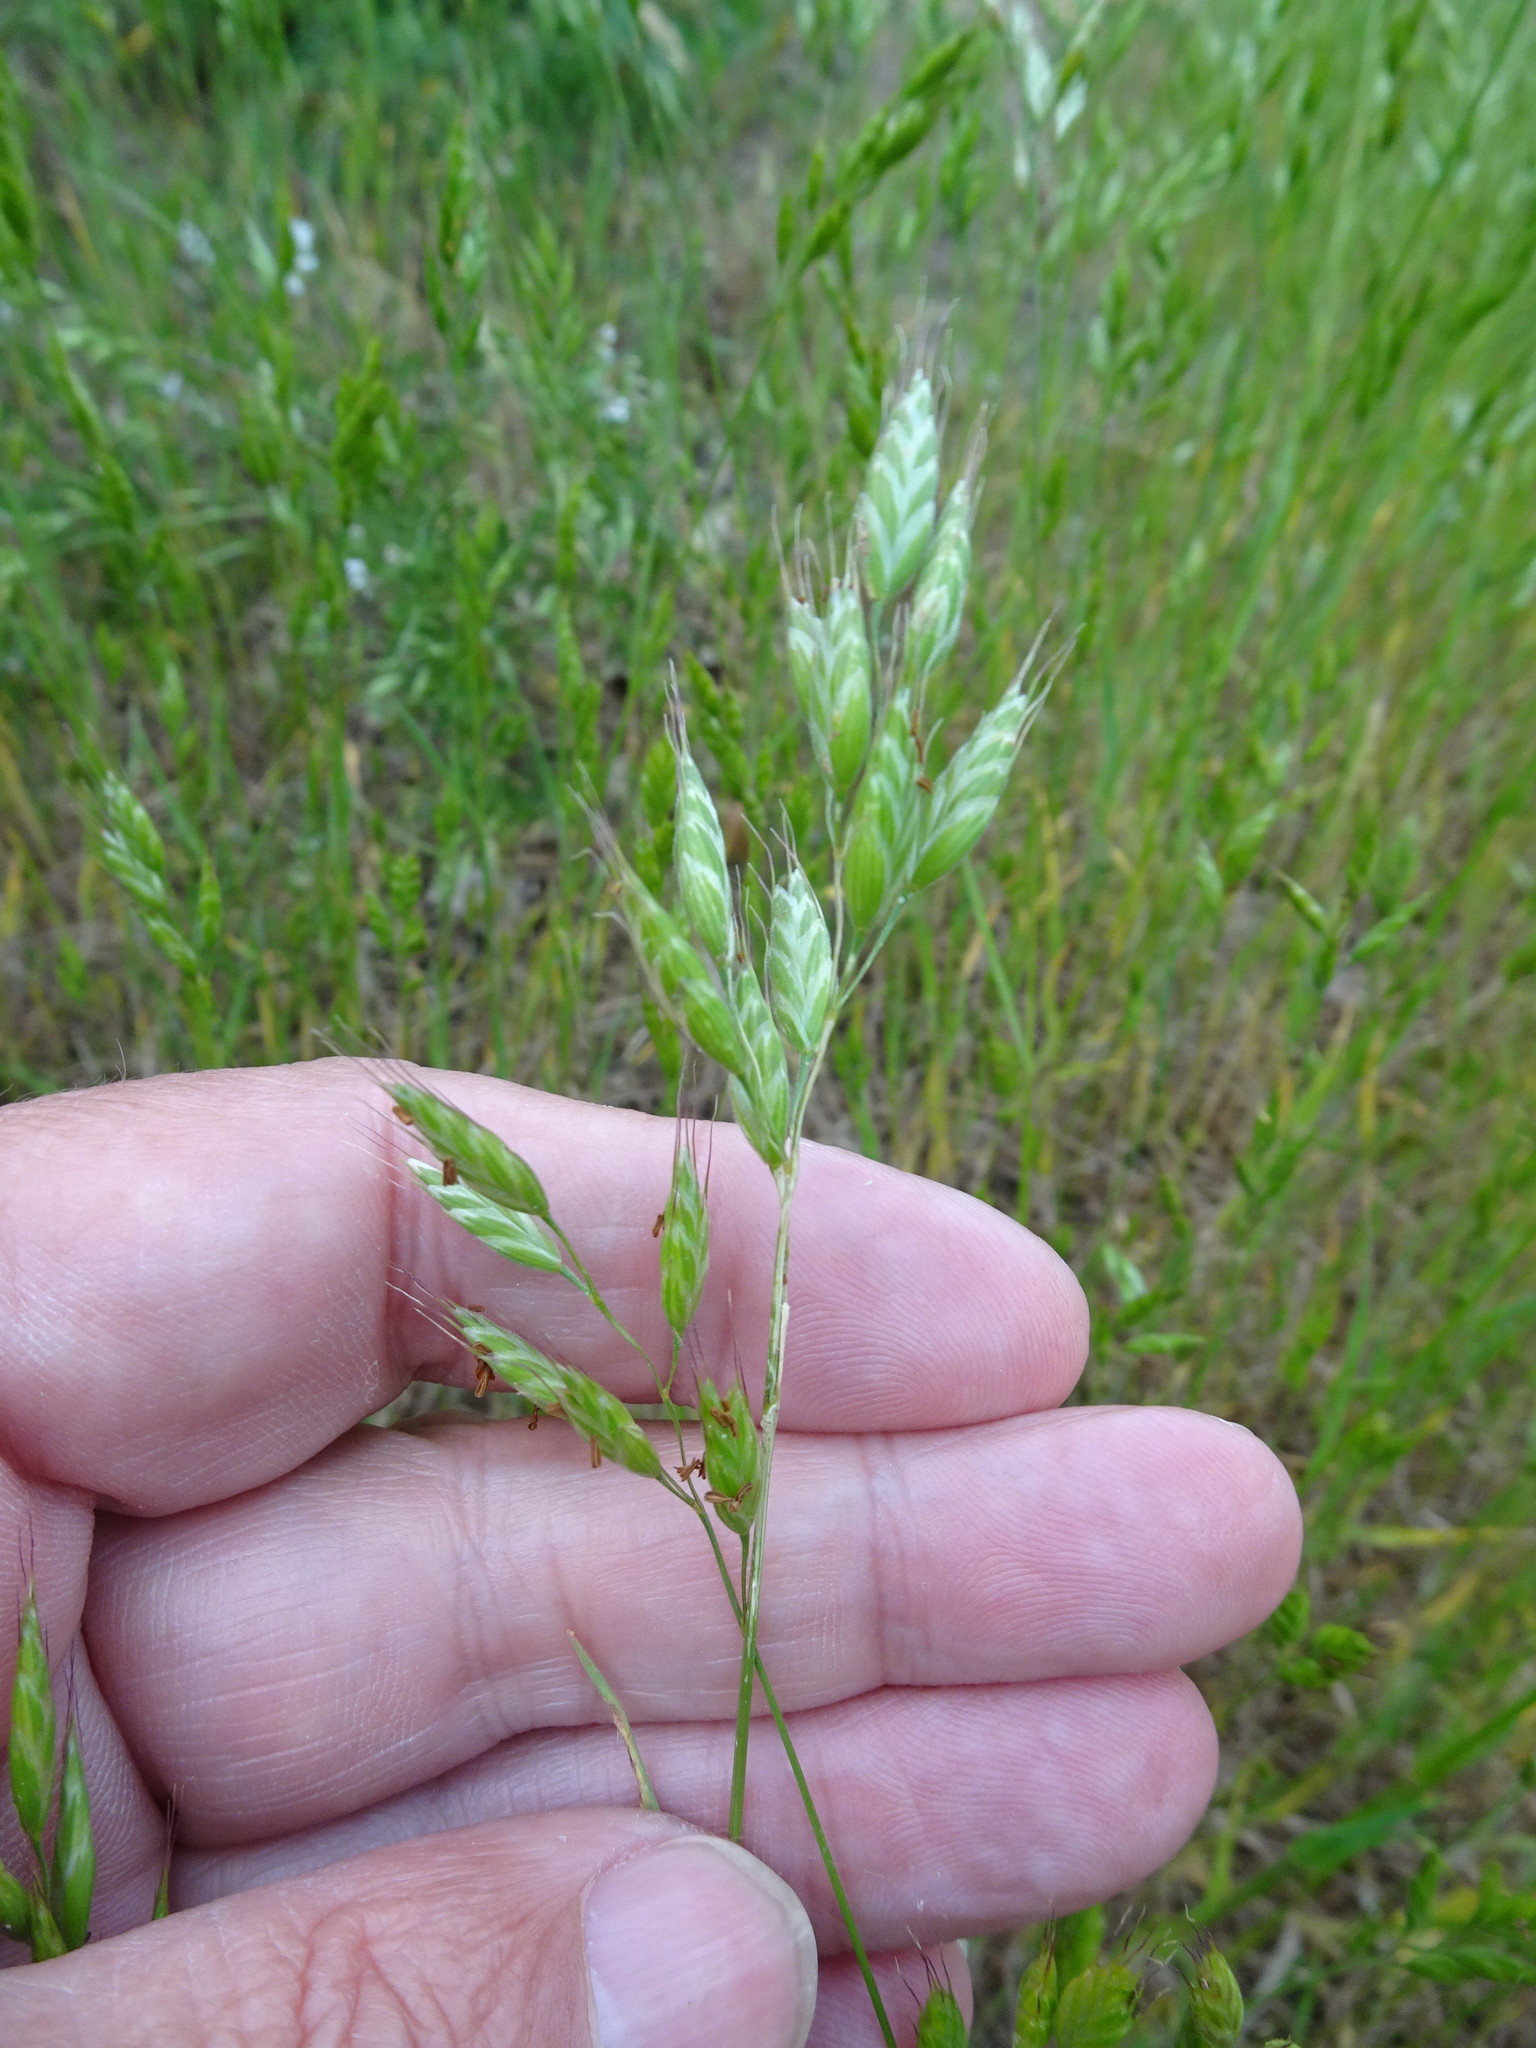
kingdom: Plantae
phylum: Tracheophyta
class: Liliopsida
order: Poales
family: Poaceae
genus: Bromus
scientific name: Bromus hordeaceus
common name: Soft brome
